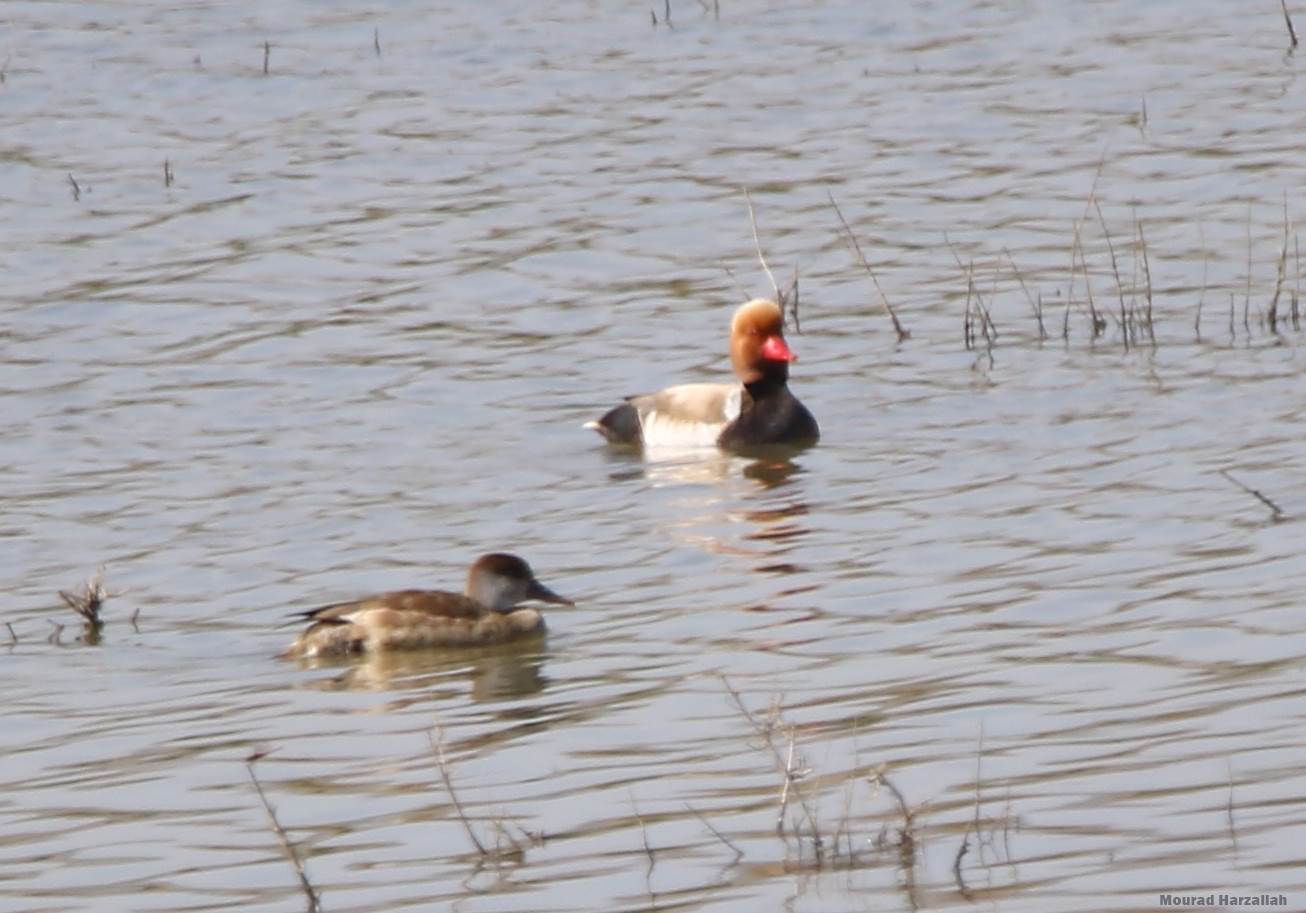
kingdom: Animalia
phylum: Chordata
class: Aves
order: Anseriformes
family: Anatidae
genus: Netta
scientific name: Netta rufina
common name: Red-crested pochard
